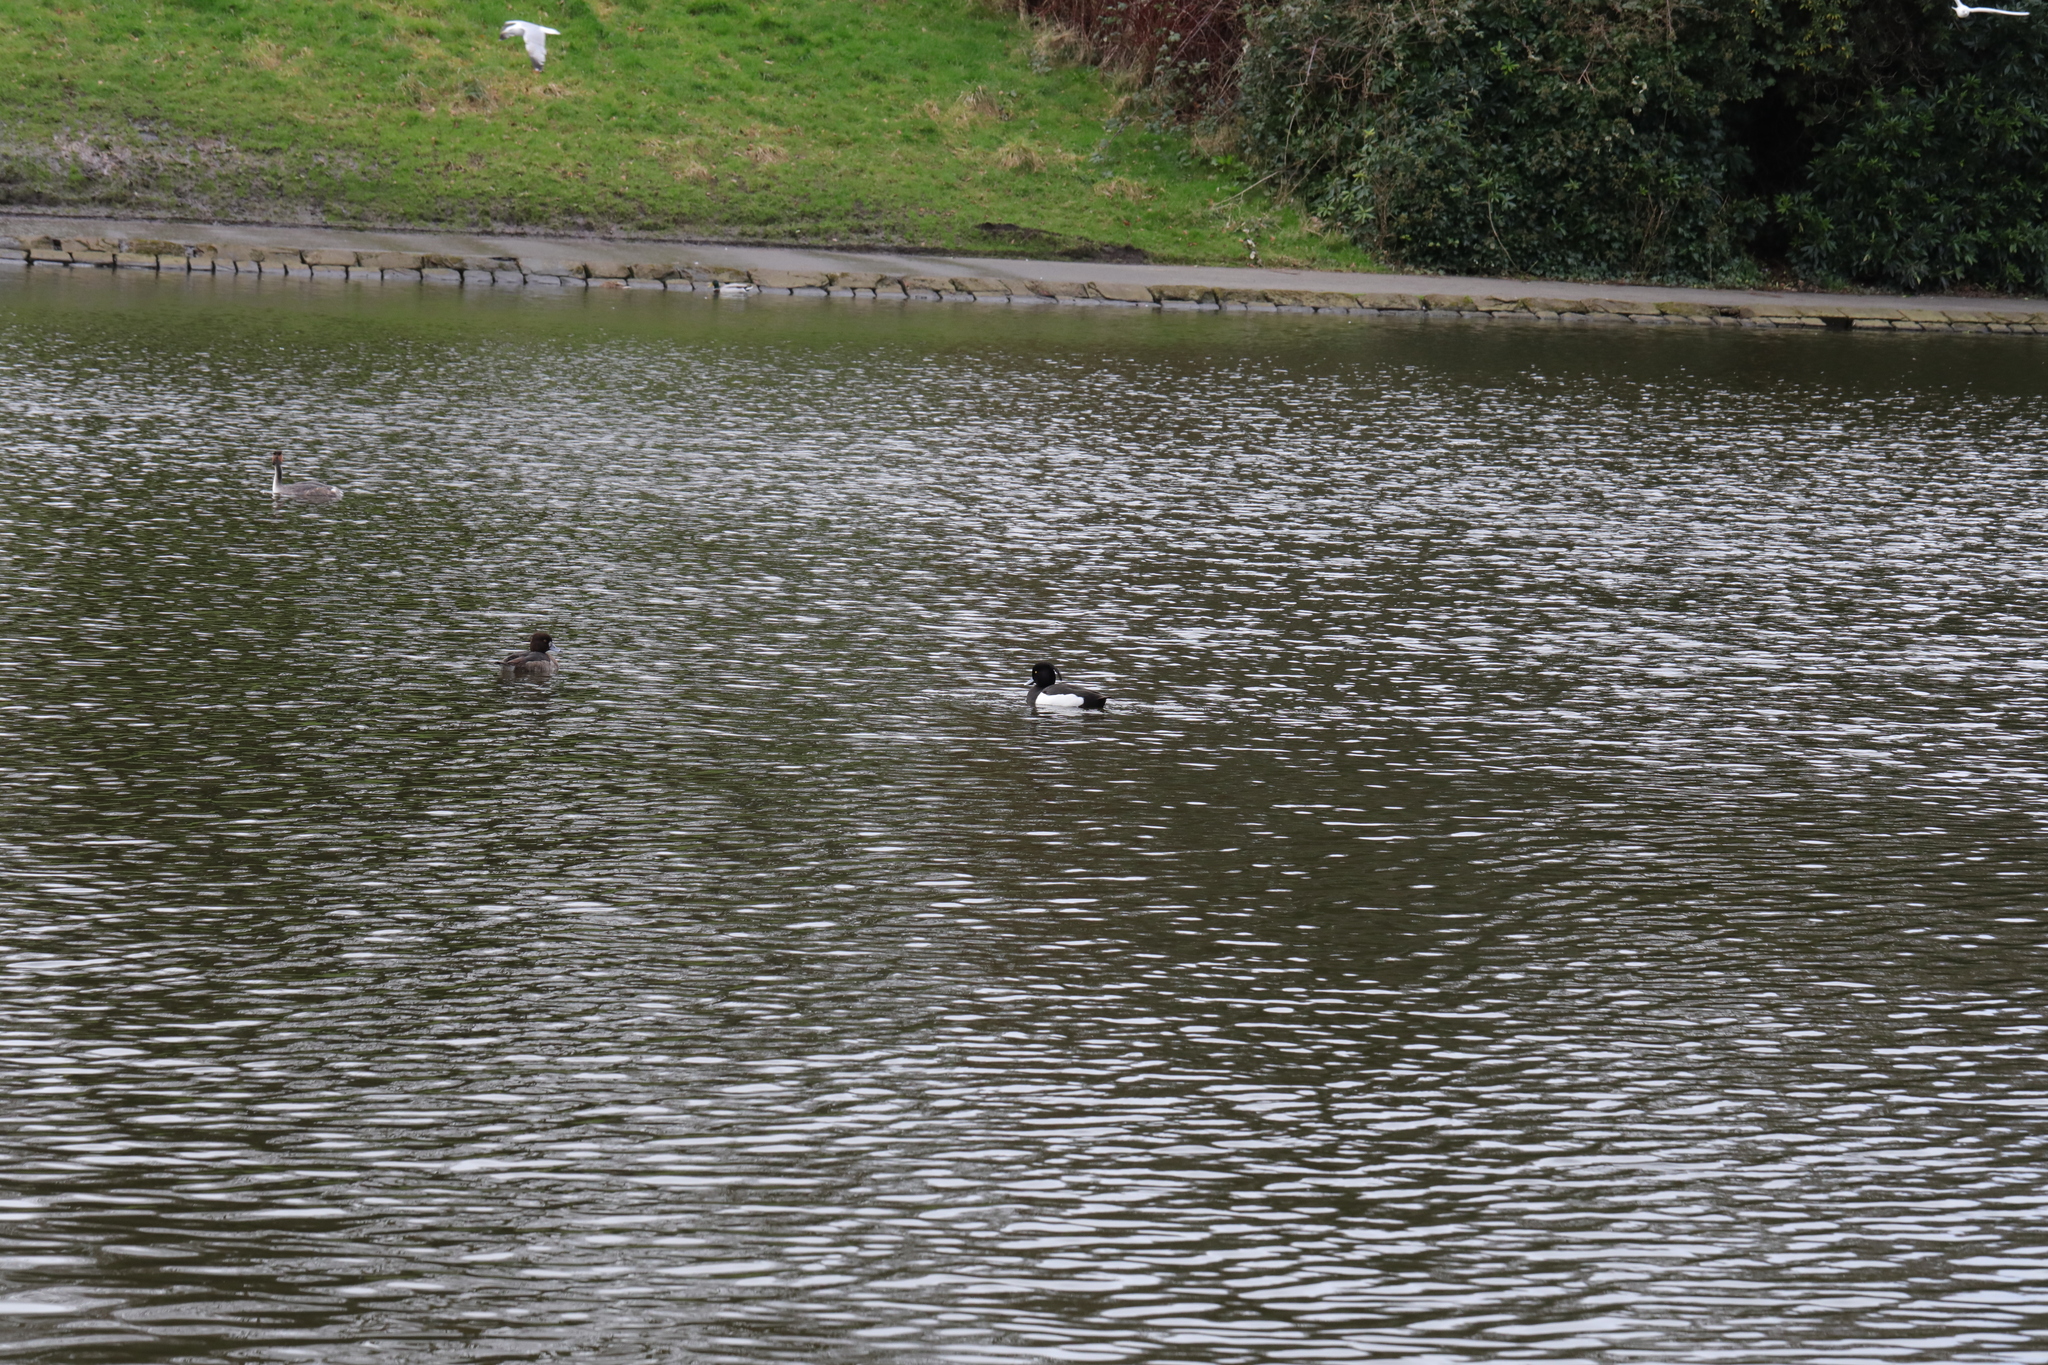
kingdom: Animalia
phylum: Chordata
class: Aves
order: Anseriformes
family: Anatidae
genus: Aythya
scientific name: Aythya fuligula
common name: Tufted duck
